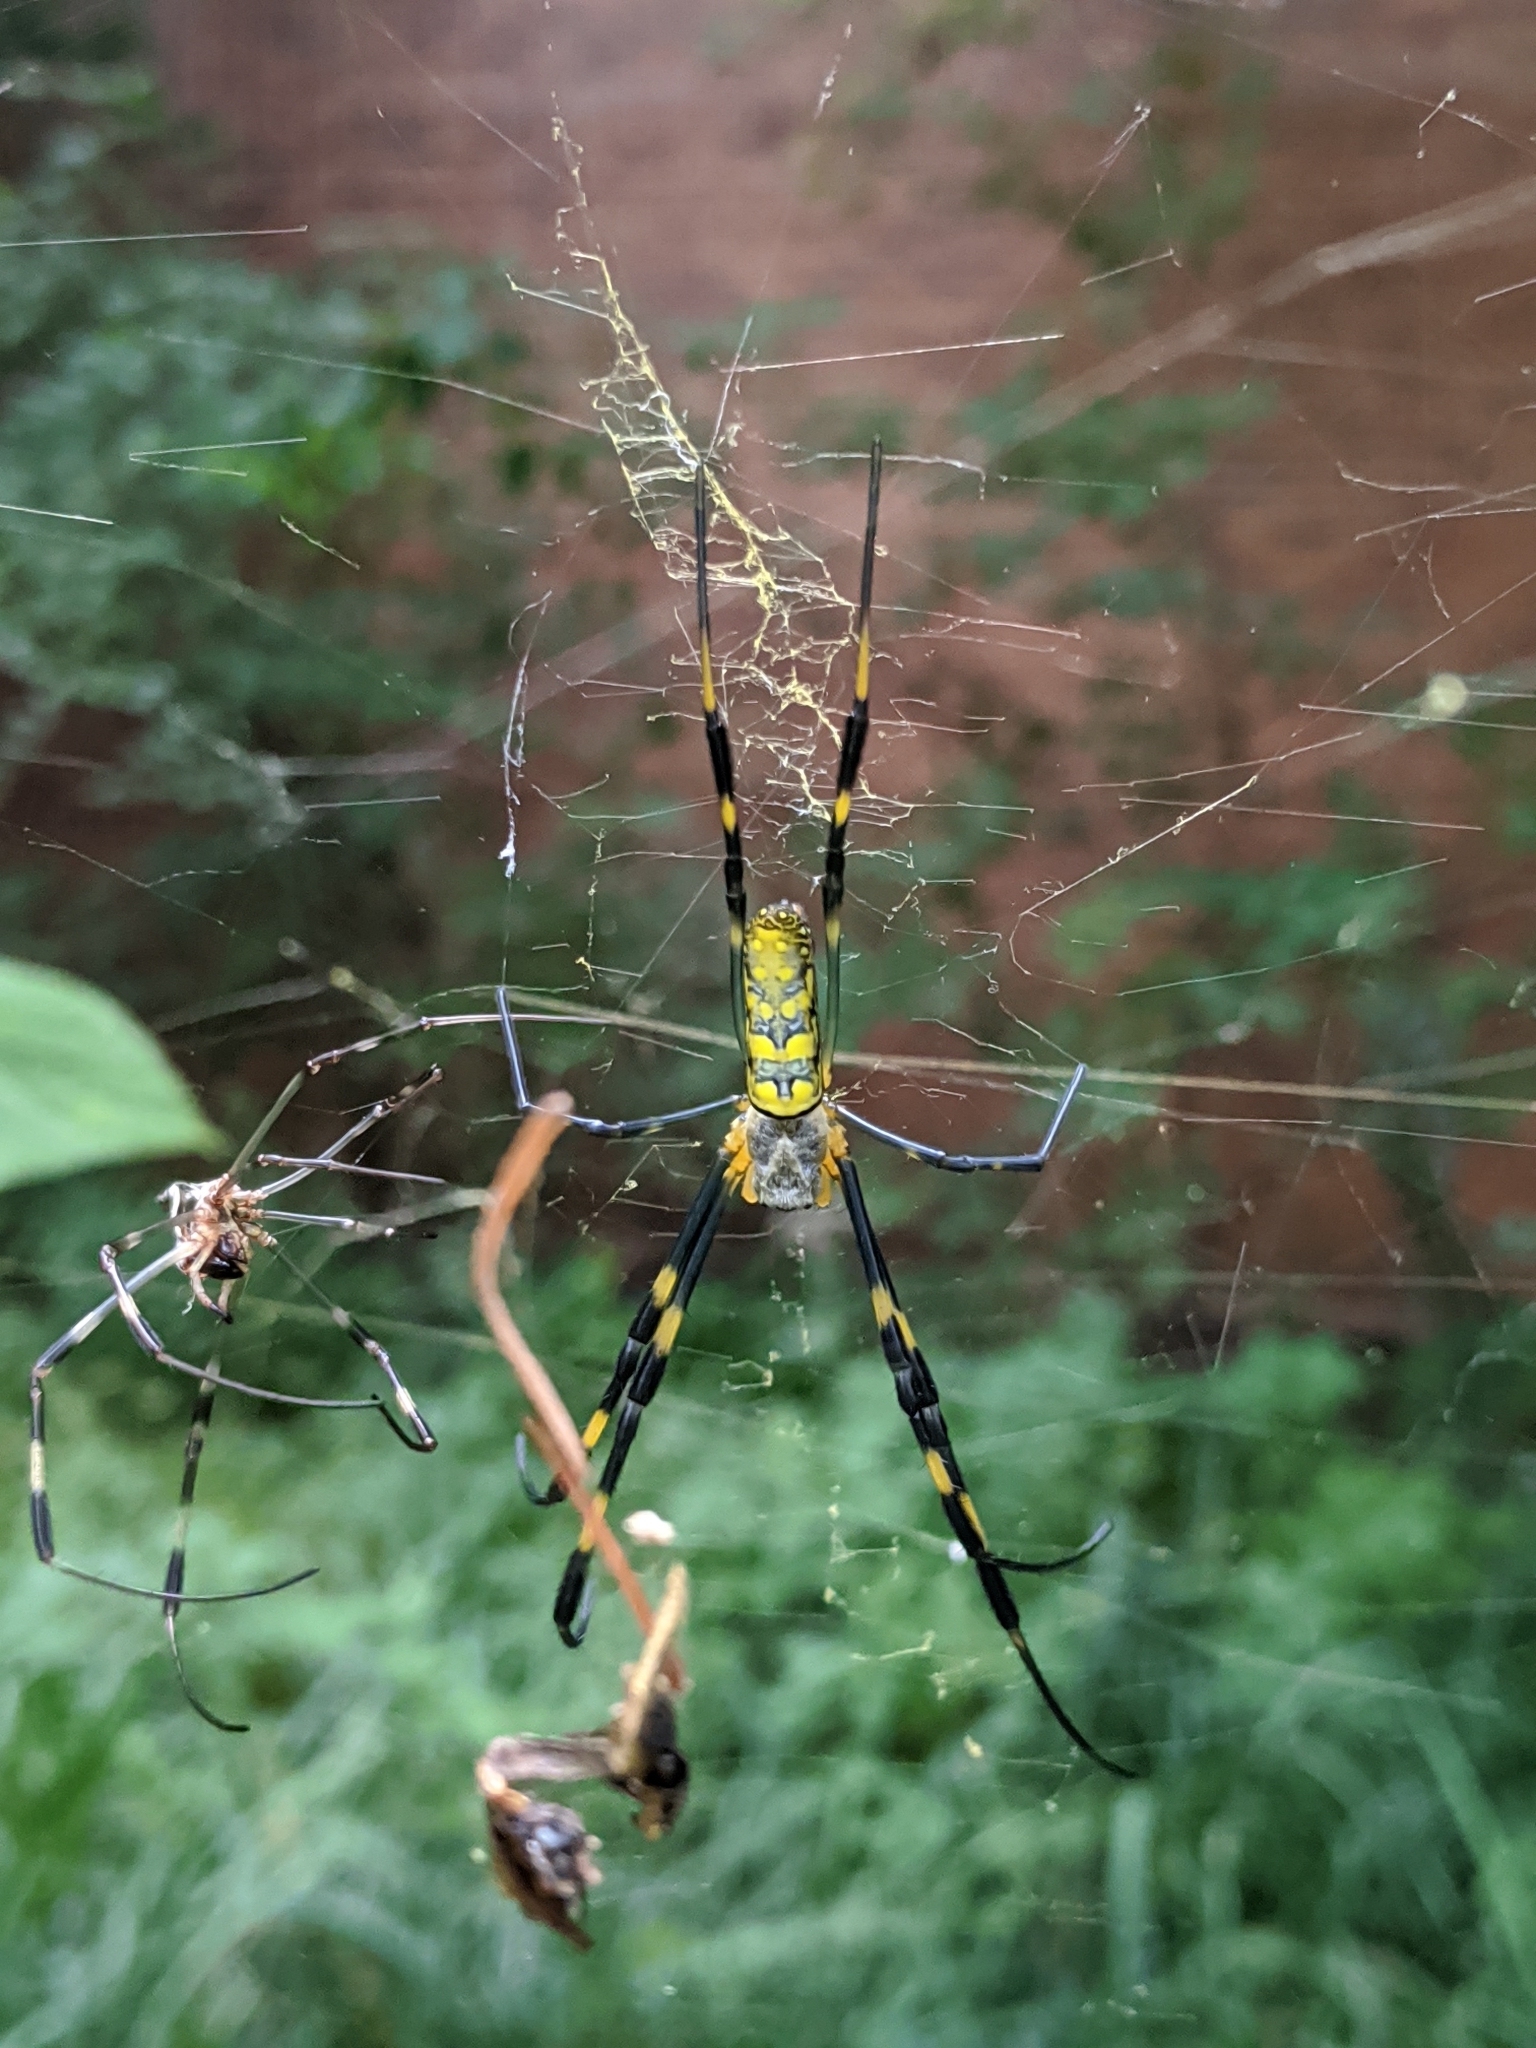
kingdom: Animalia
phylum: Arthropoda
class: Arachnida
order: Araneae
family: Araneidae
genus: Trichonephila
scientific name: Trichonephila clavata
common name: Jorō spider
